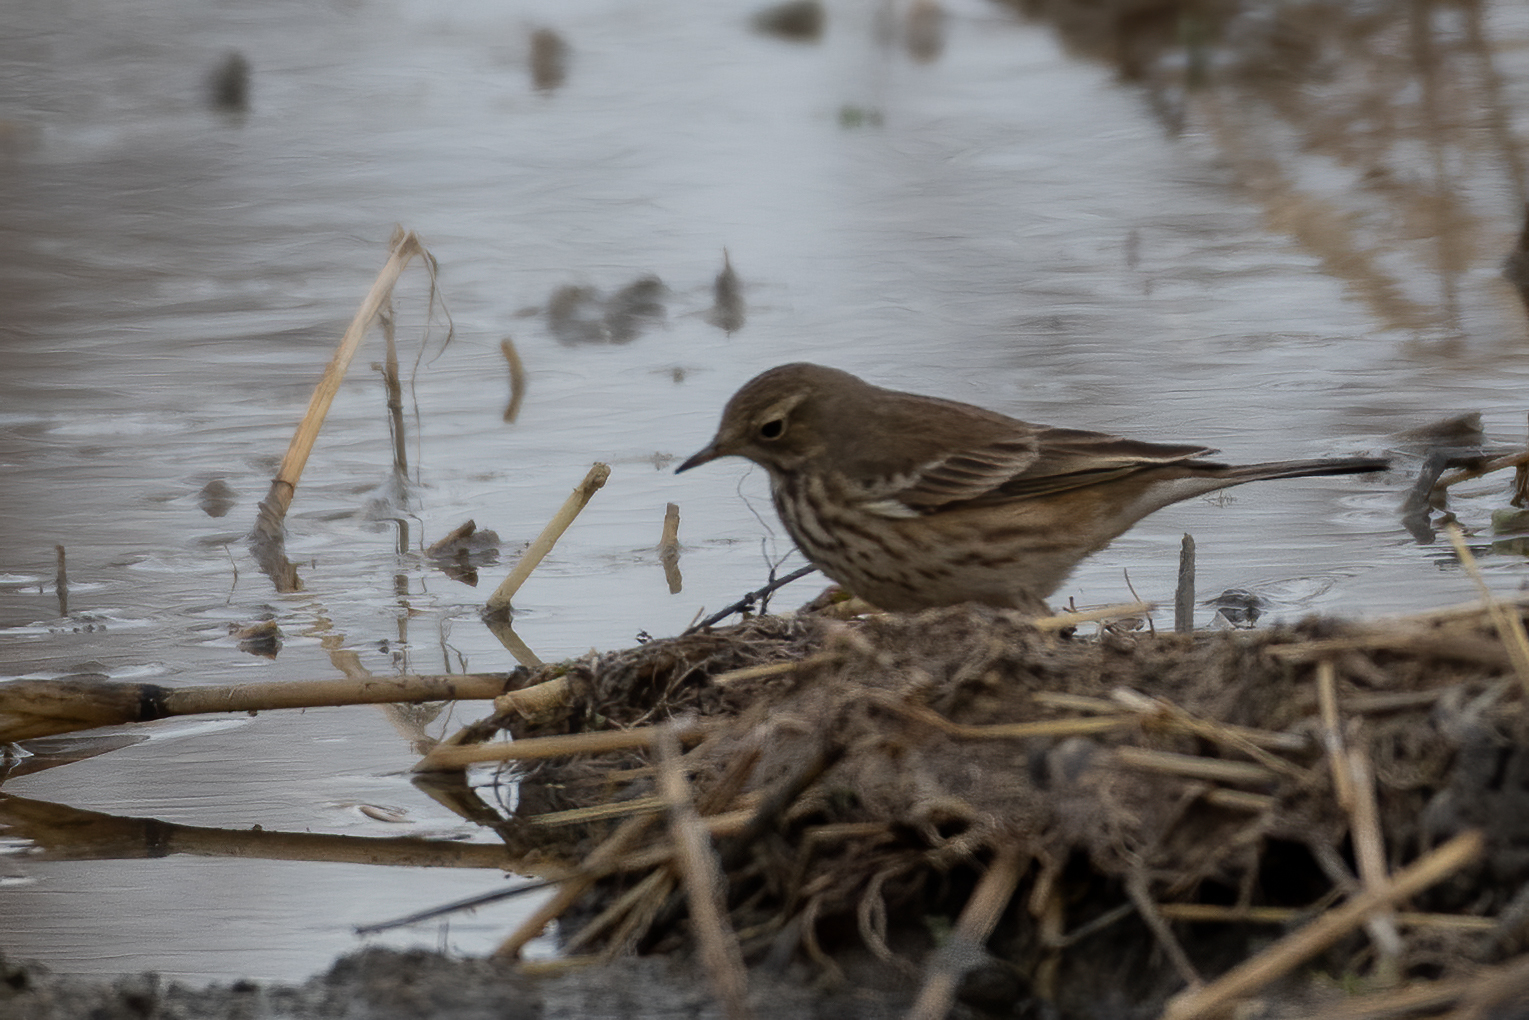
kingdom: Animalia
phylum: Chordata
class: Aves
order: Passeriformes
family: Motacillidae
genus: Anthus
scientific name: Anthus rubescens
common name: Buff-bellied pipit
